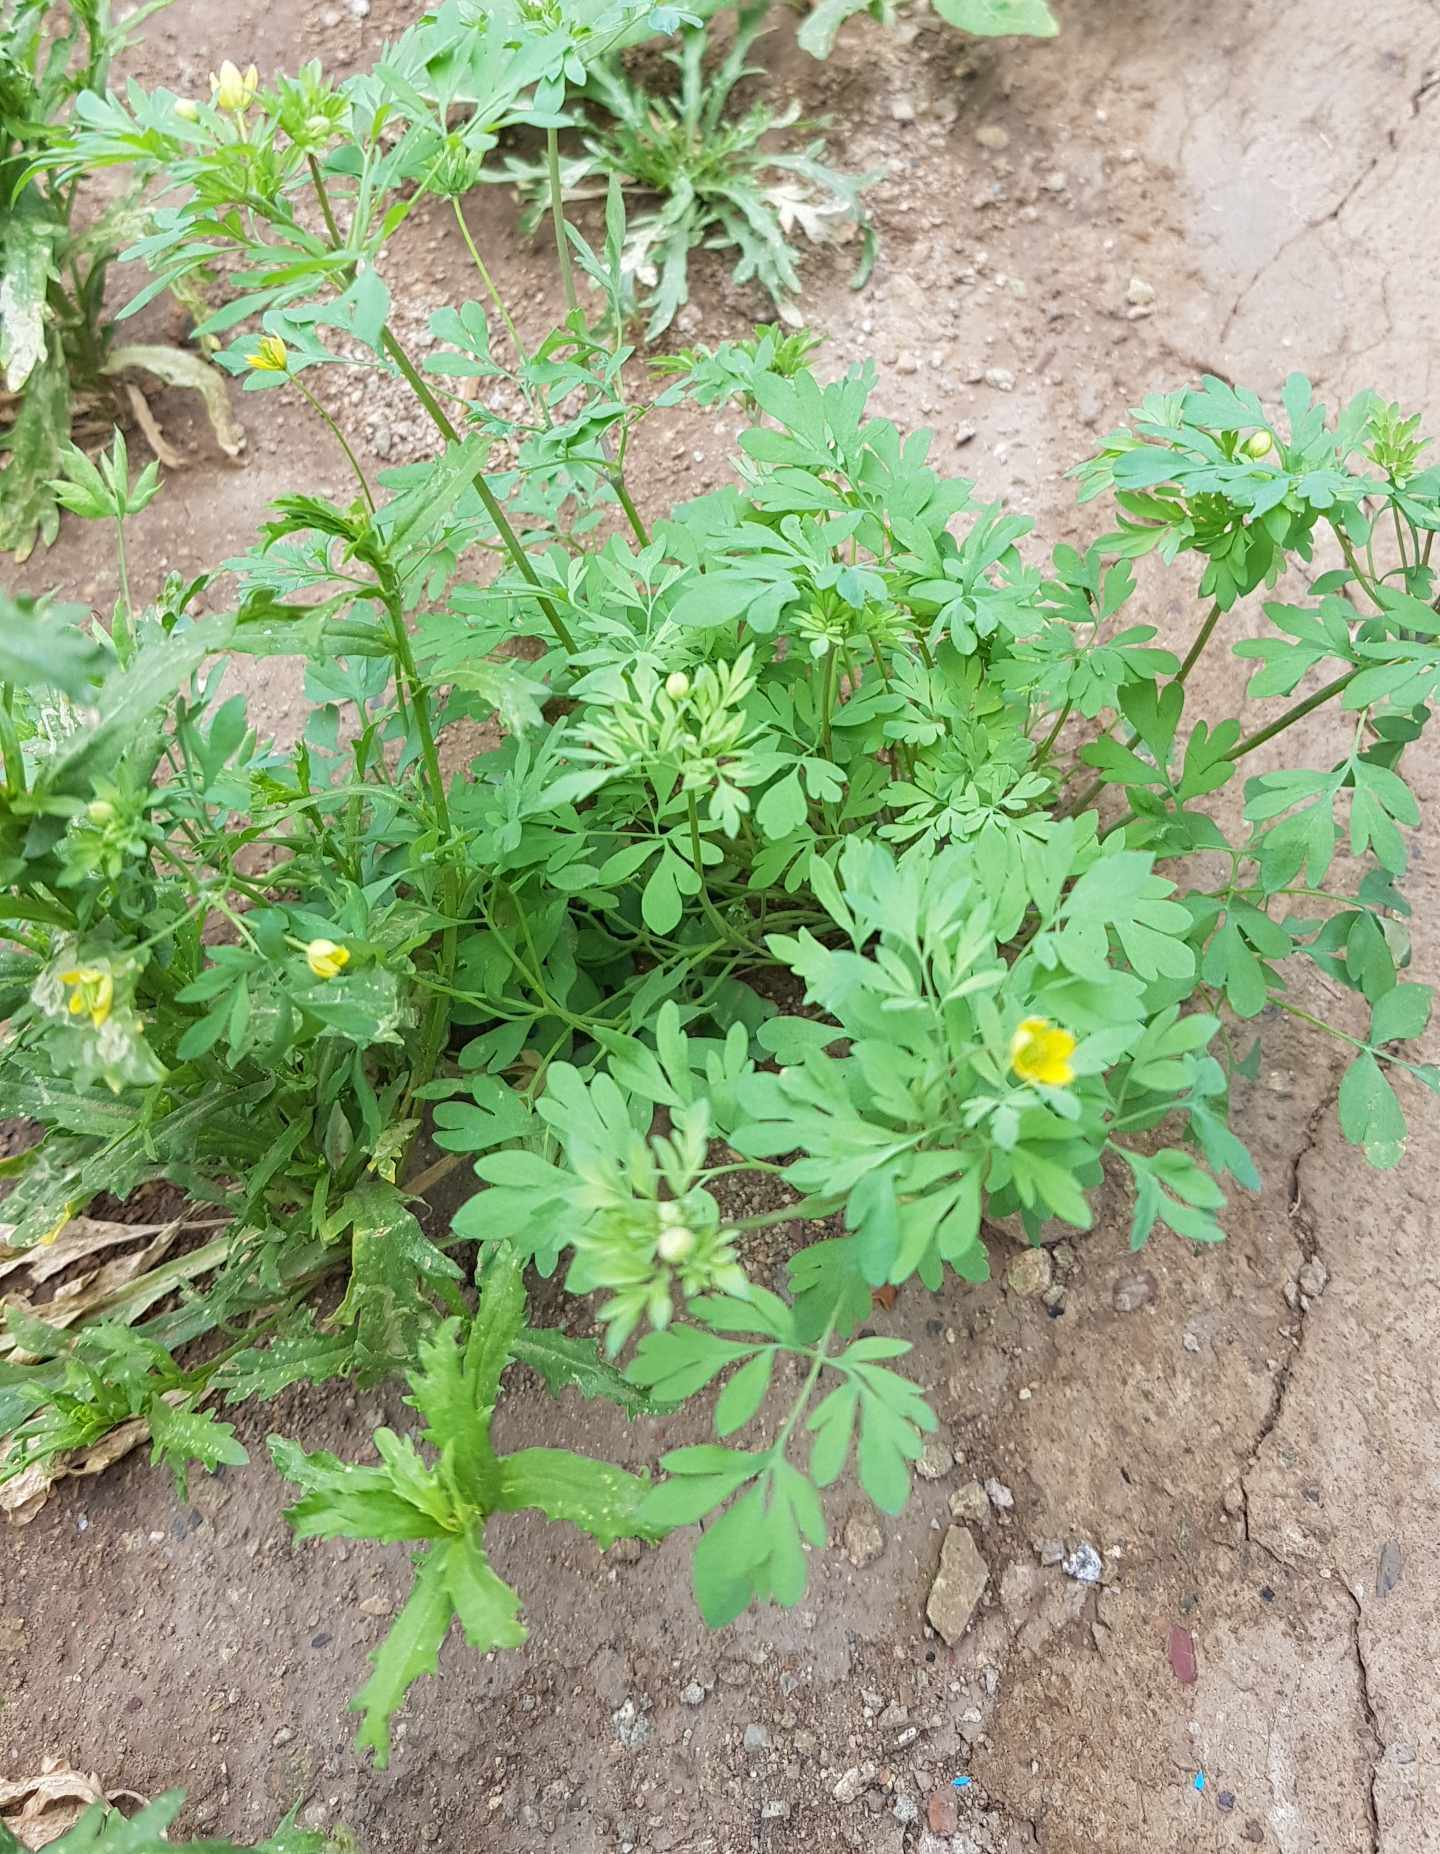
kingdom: Plantae
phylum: Tracheophyta
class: Magnoliopsida
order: Ranunculales
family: Ranunculaceae
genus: Leptopyrum
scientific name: Leptopyrum fumarioides
